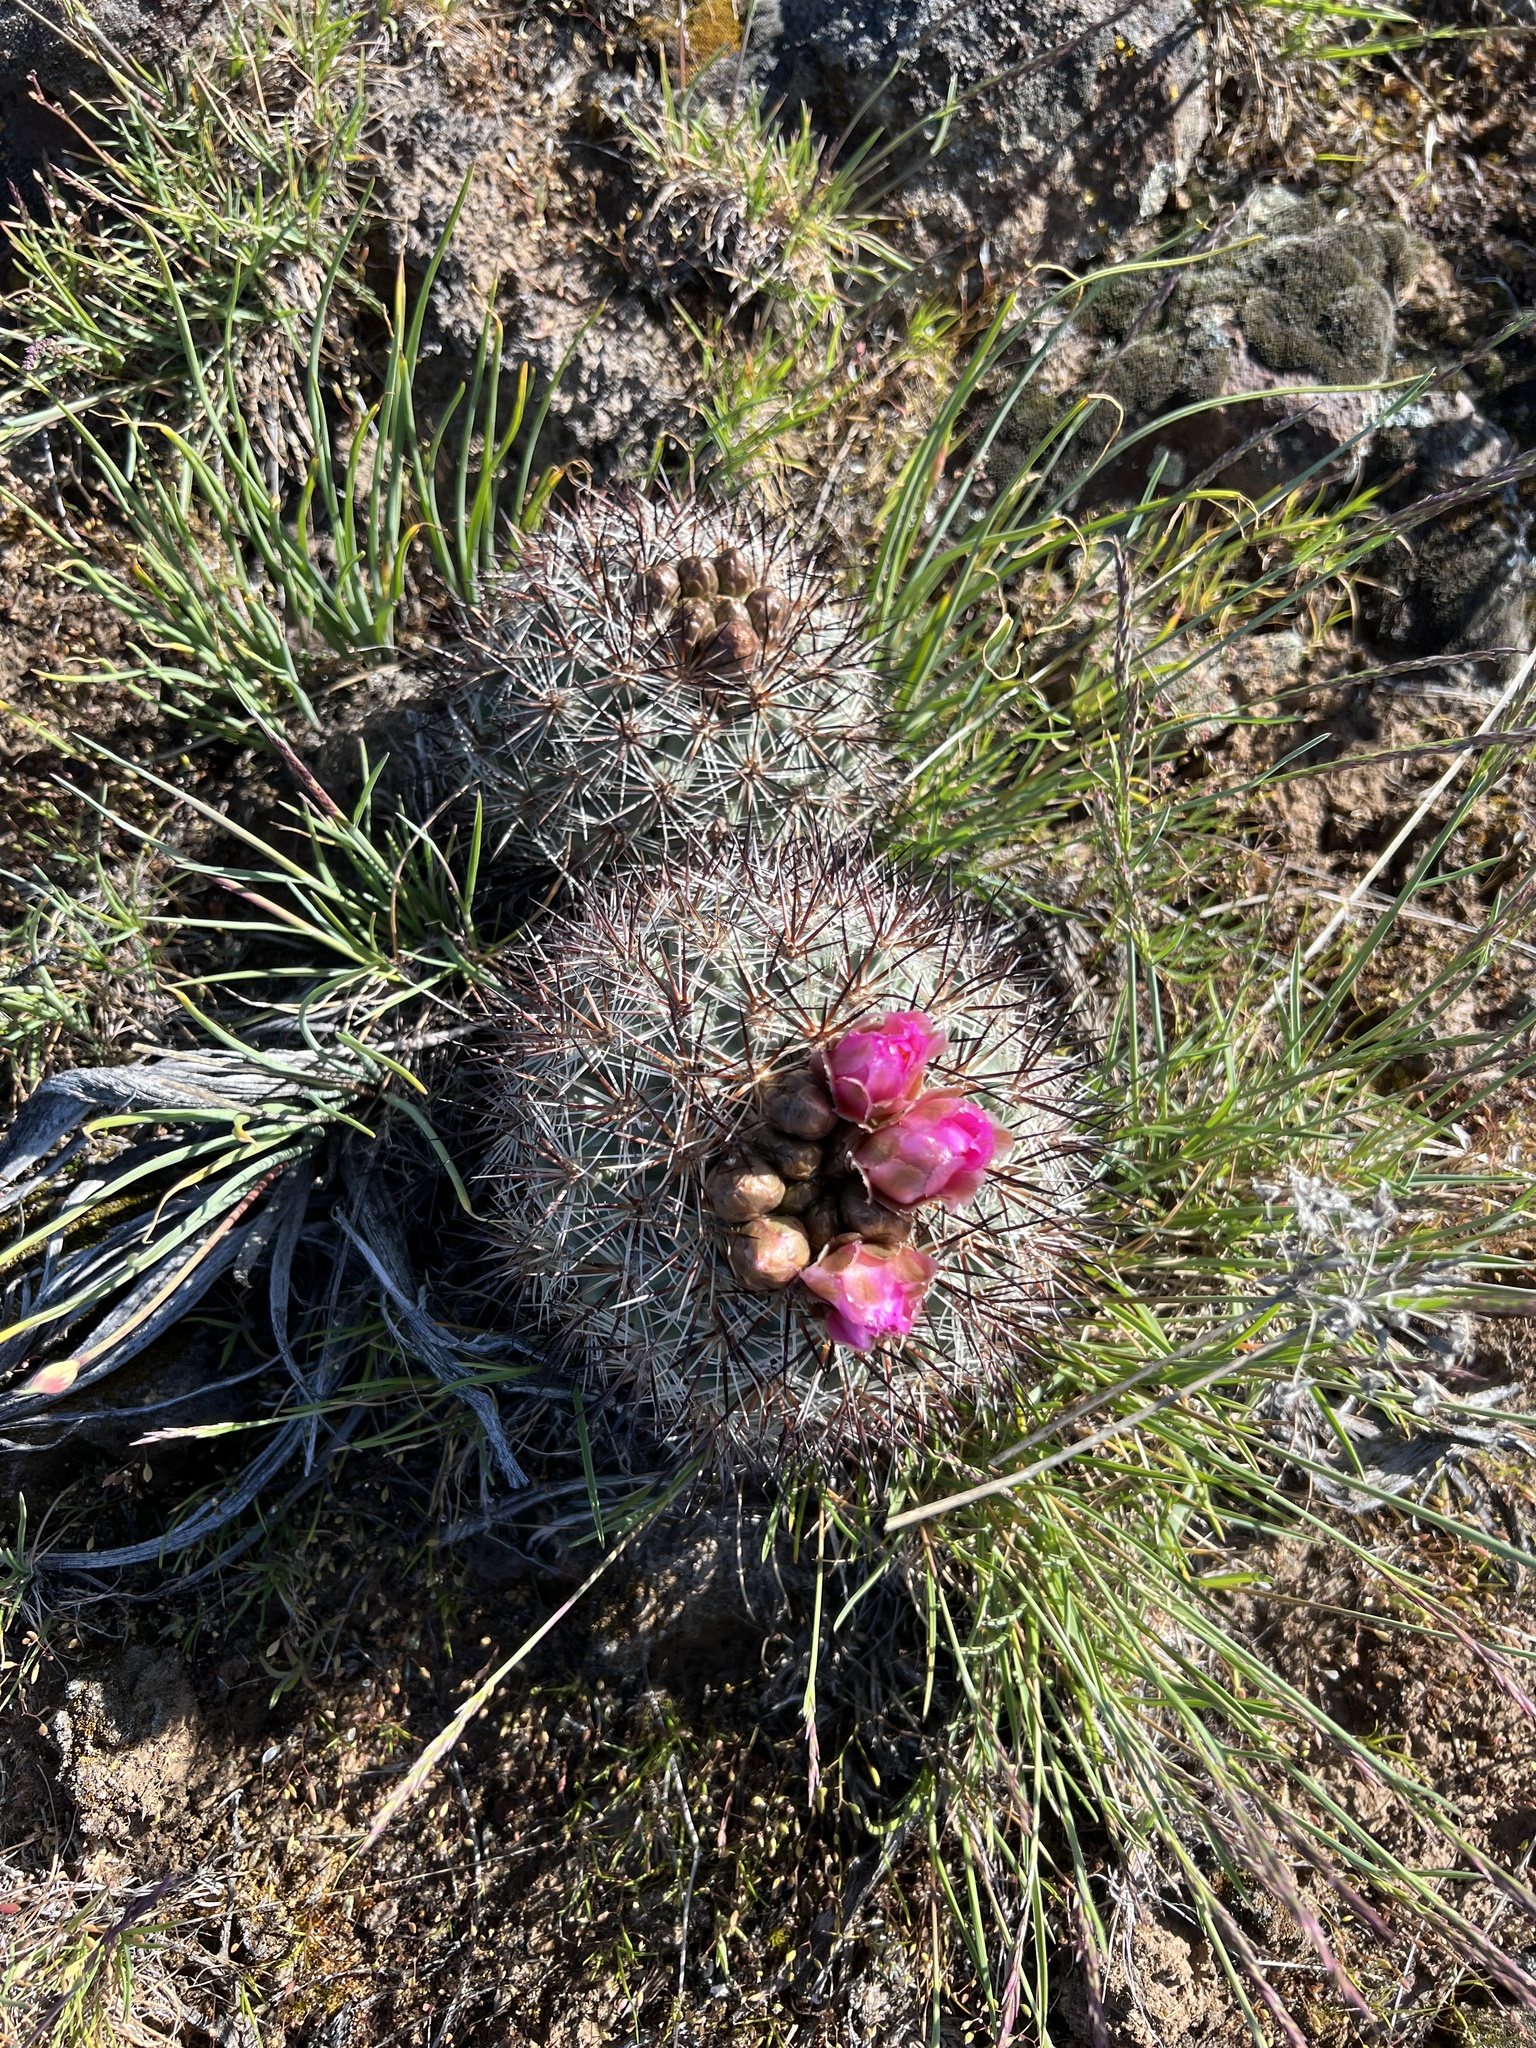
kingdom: Plantae
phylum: Tracheophyta
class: Magnoliopsida
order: Caryophyllales
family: Cactaceae
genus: Pediocactus
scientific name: Pediocactus nigrispinus
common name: Simpson's hedgehog cactus
